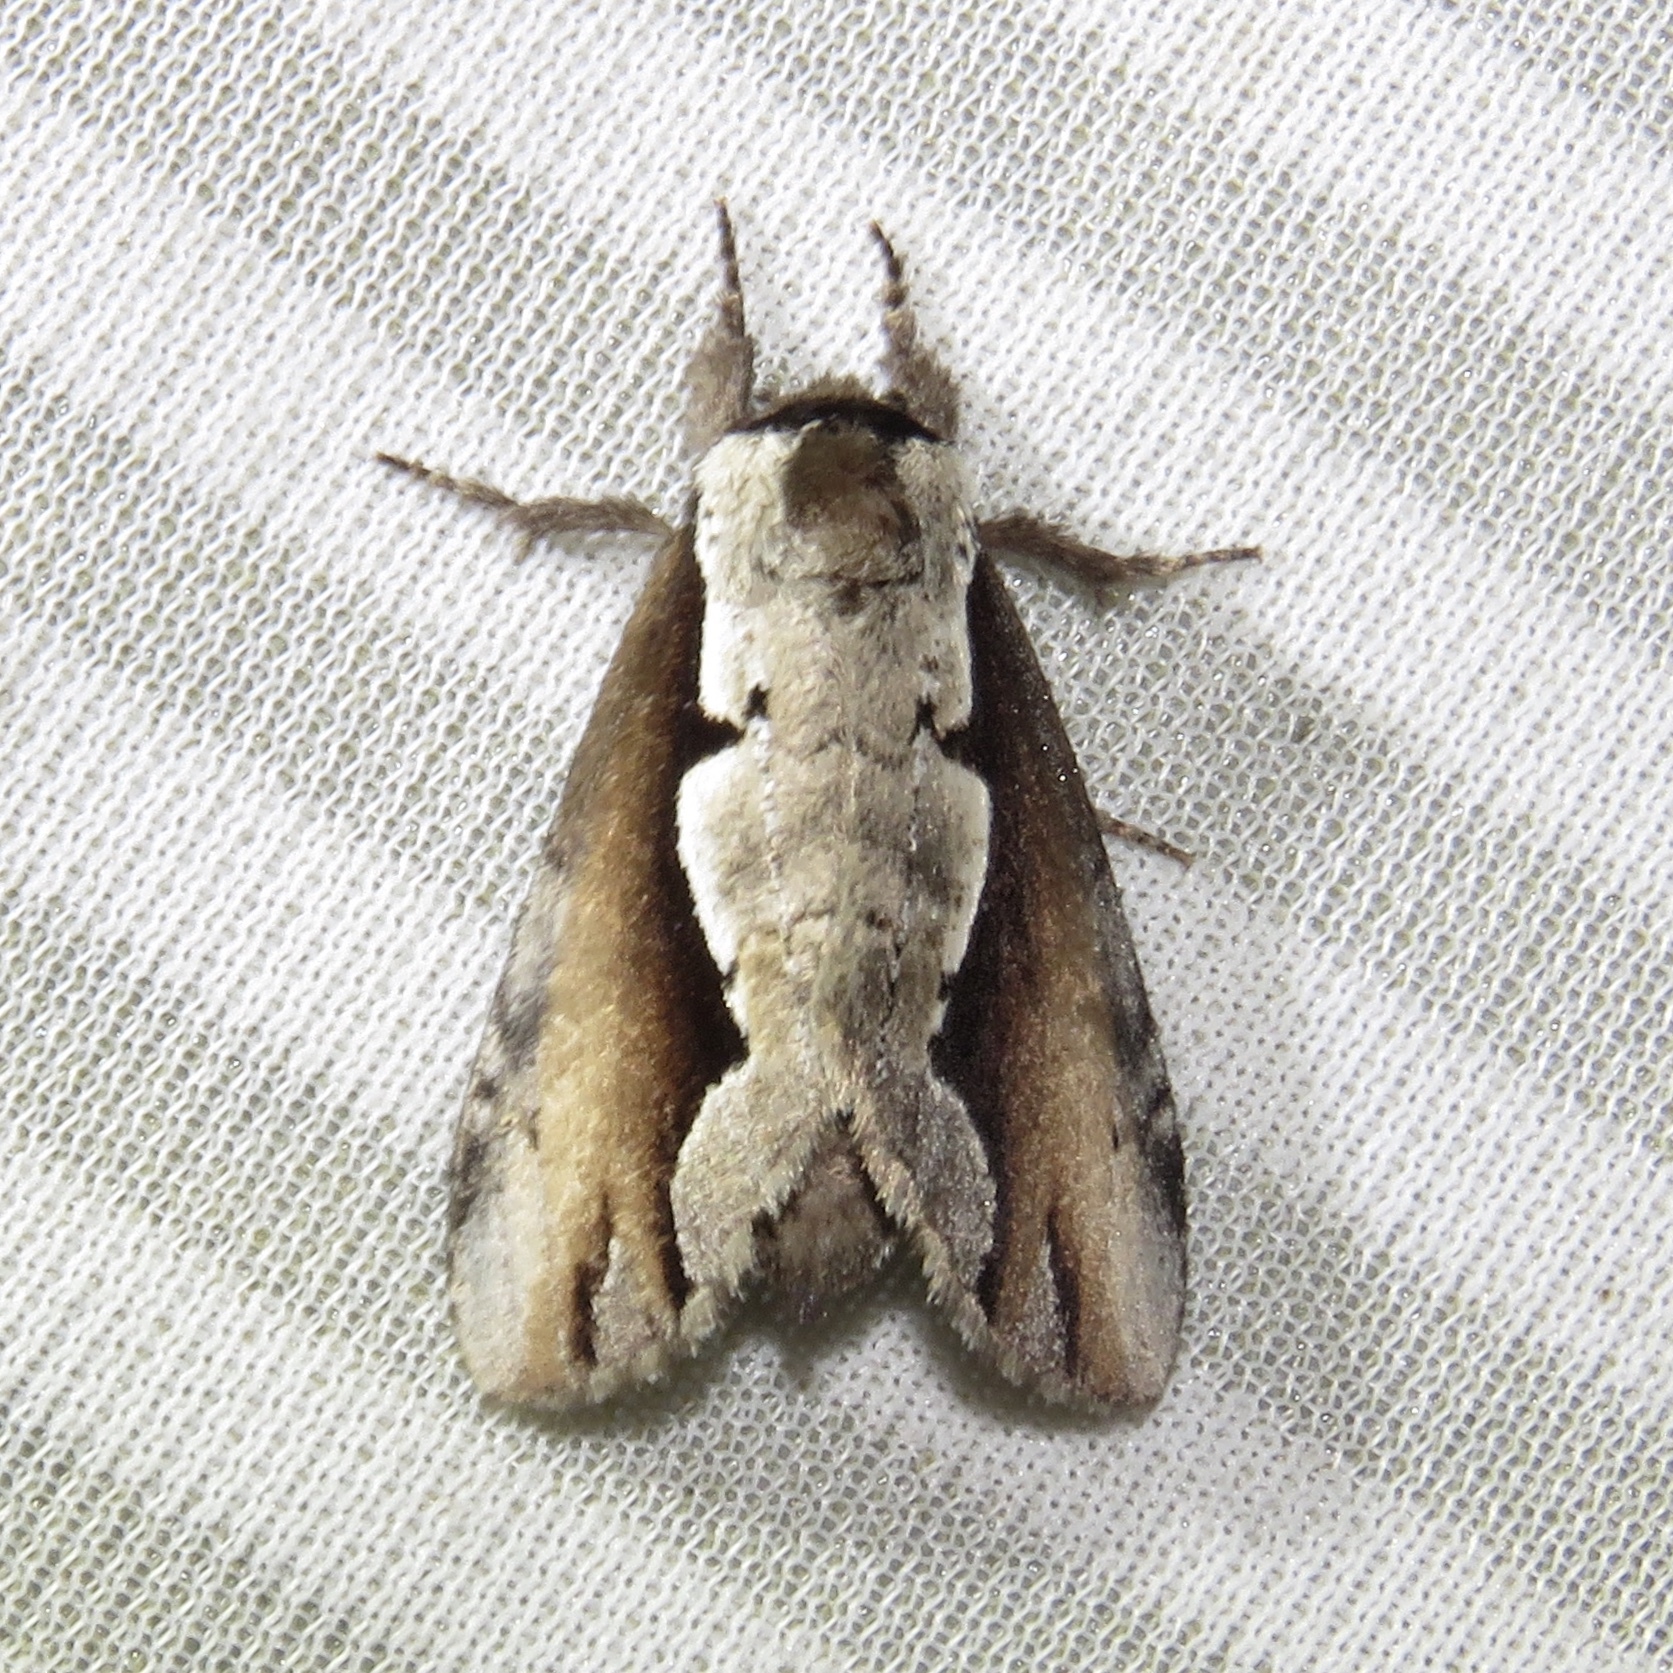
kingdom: Animalia
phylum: Arthropoda
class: Insecta
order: Lepidoptera
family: Notodontidae
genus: Nerice
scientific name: Nerice bidentata
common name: Double-toothed prominent
